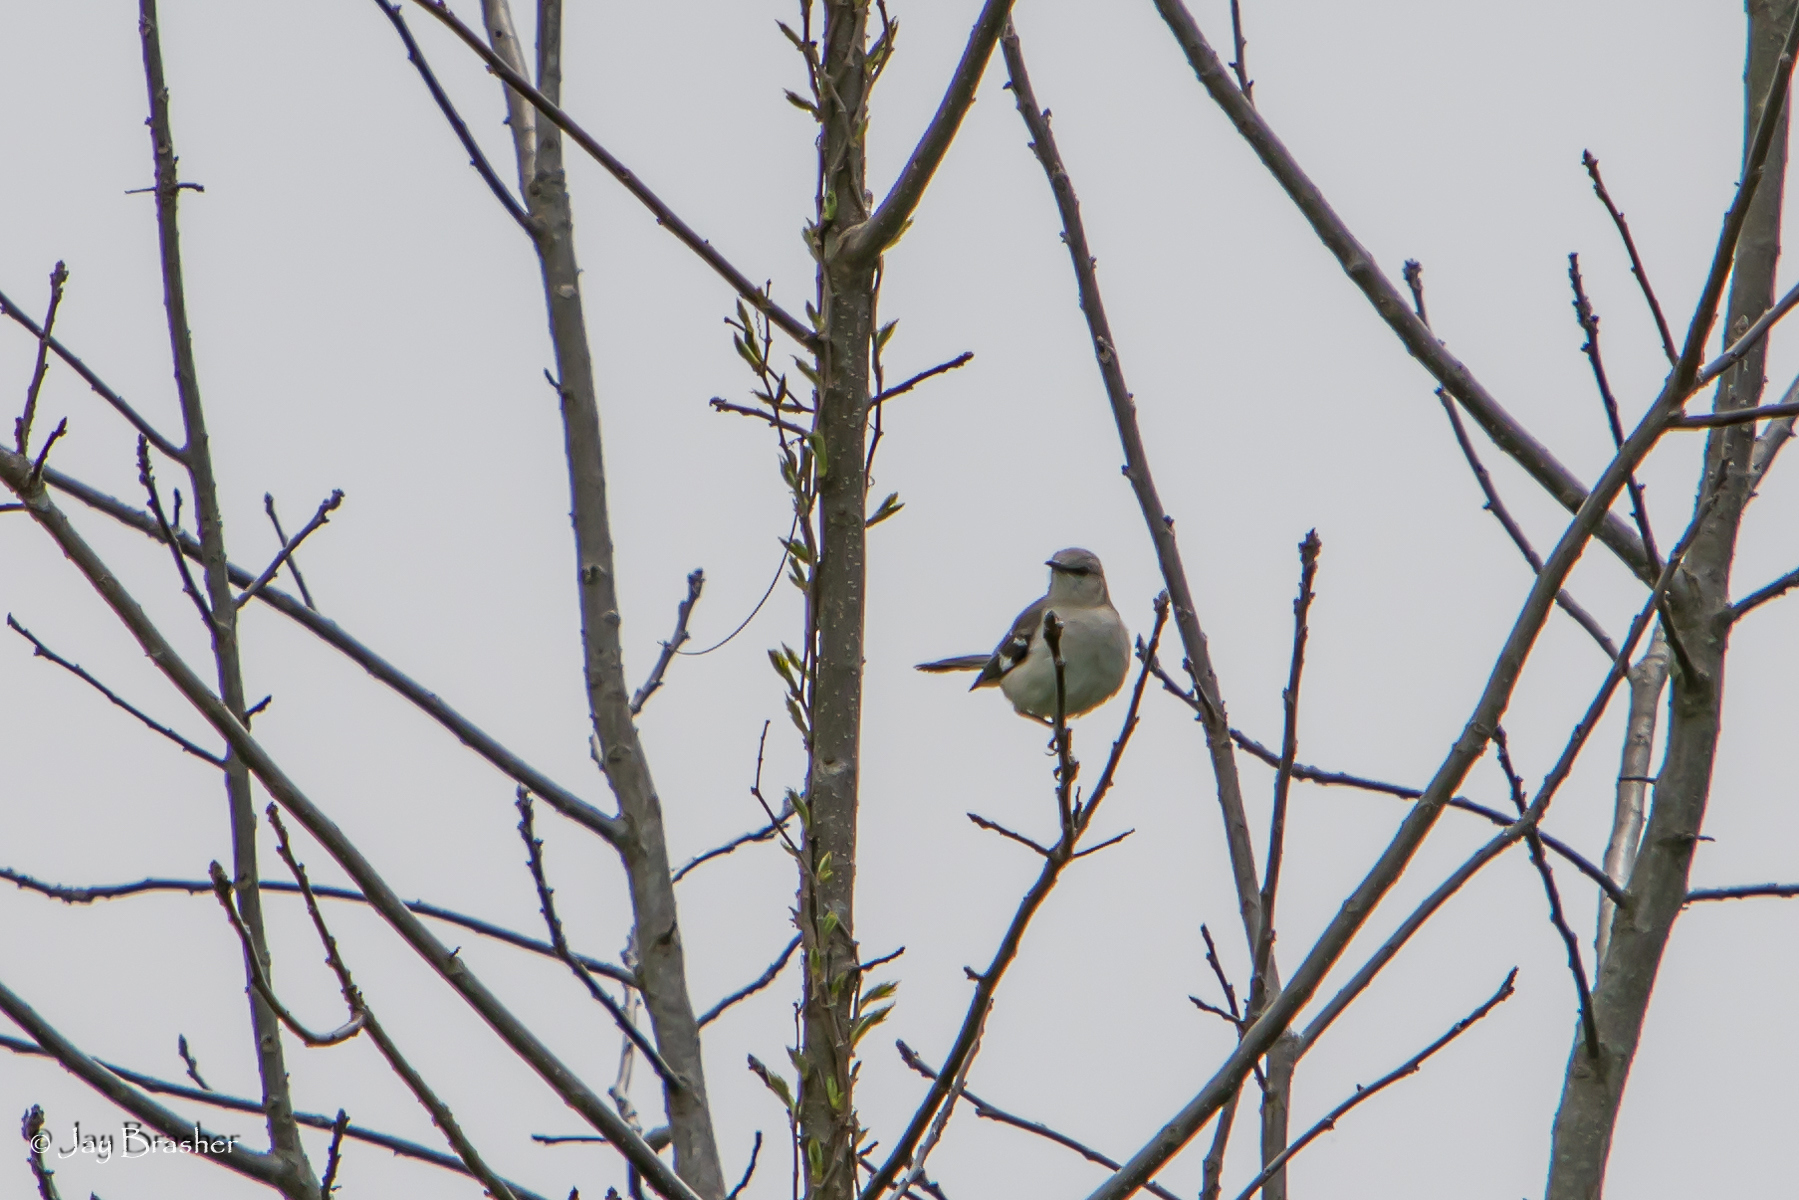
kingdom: Animalia
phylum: Chordata
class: Aves
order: Passeriformes
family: Mimidae
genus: Mimus
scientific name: Mimus polyglottos
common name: Northern mockingbird
